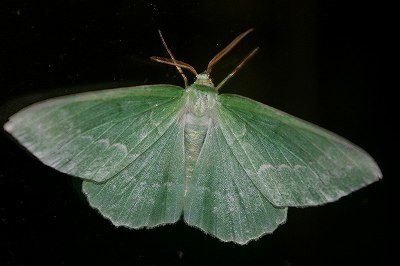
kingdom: Animalia
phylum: Arthropoda
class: Insecta
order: Lepidoptera
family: Geometridae
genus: Geometra
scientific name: Geometra papilionaria
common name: Large emerald
